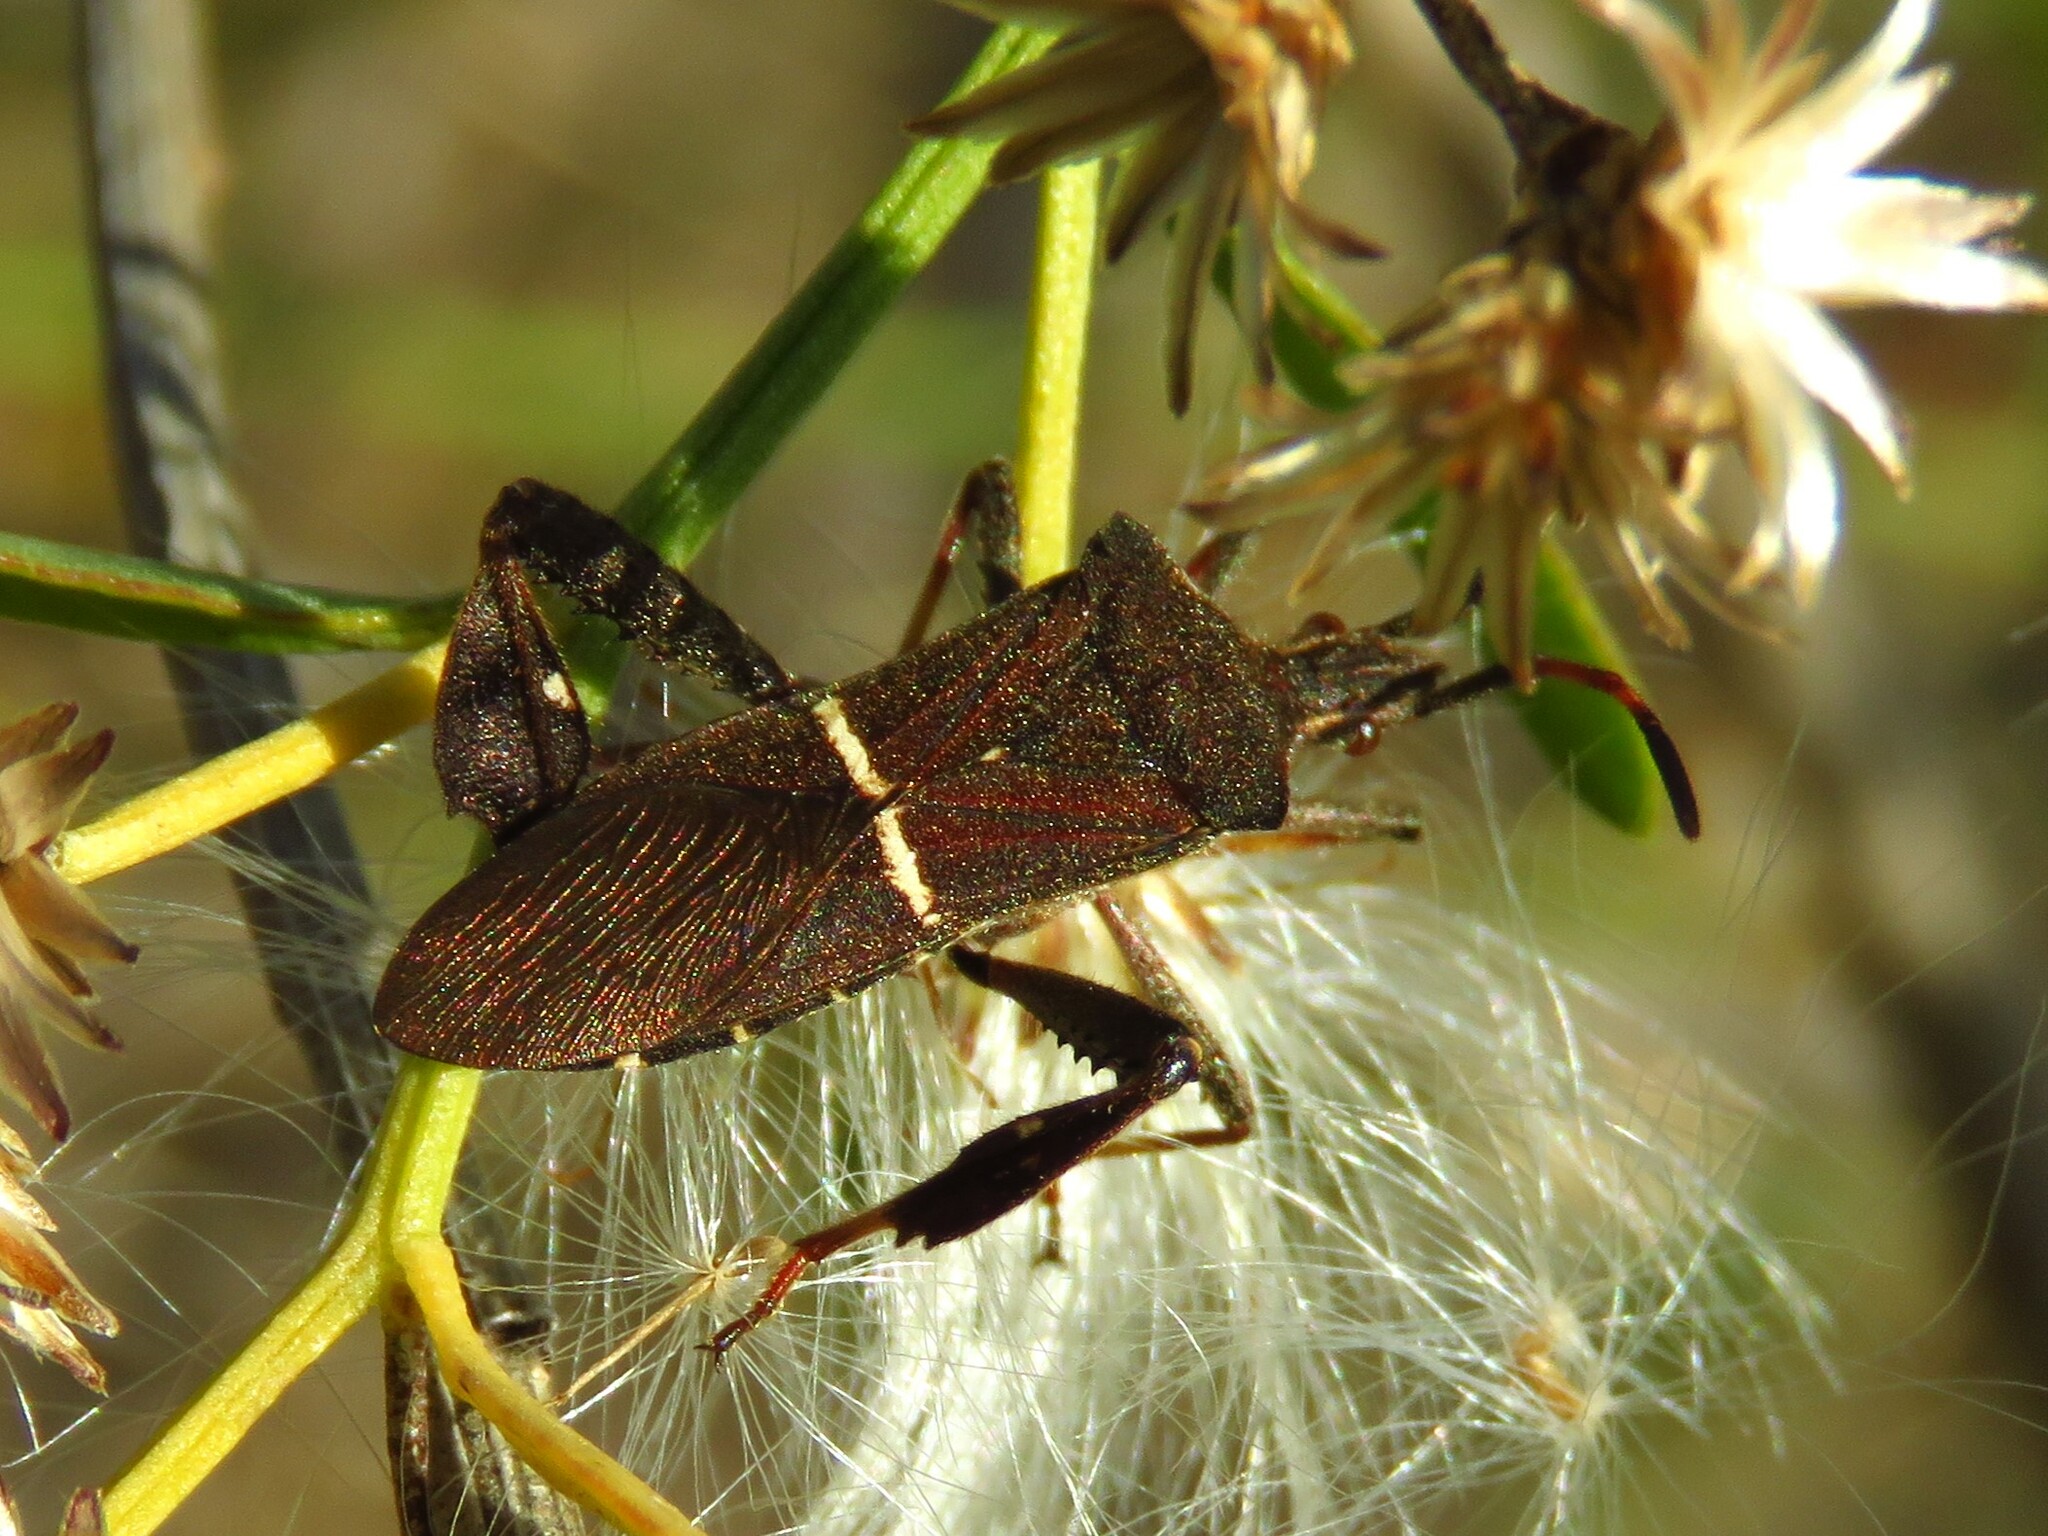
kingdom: Animalia
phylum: Arthropoda
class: Insecta
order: Hemiptera
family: Coreidae
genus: Leptoglossus
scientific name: Leptoglossus phyllopus
